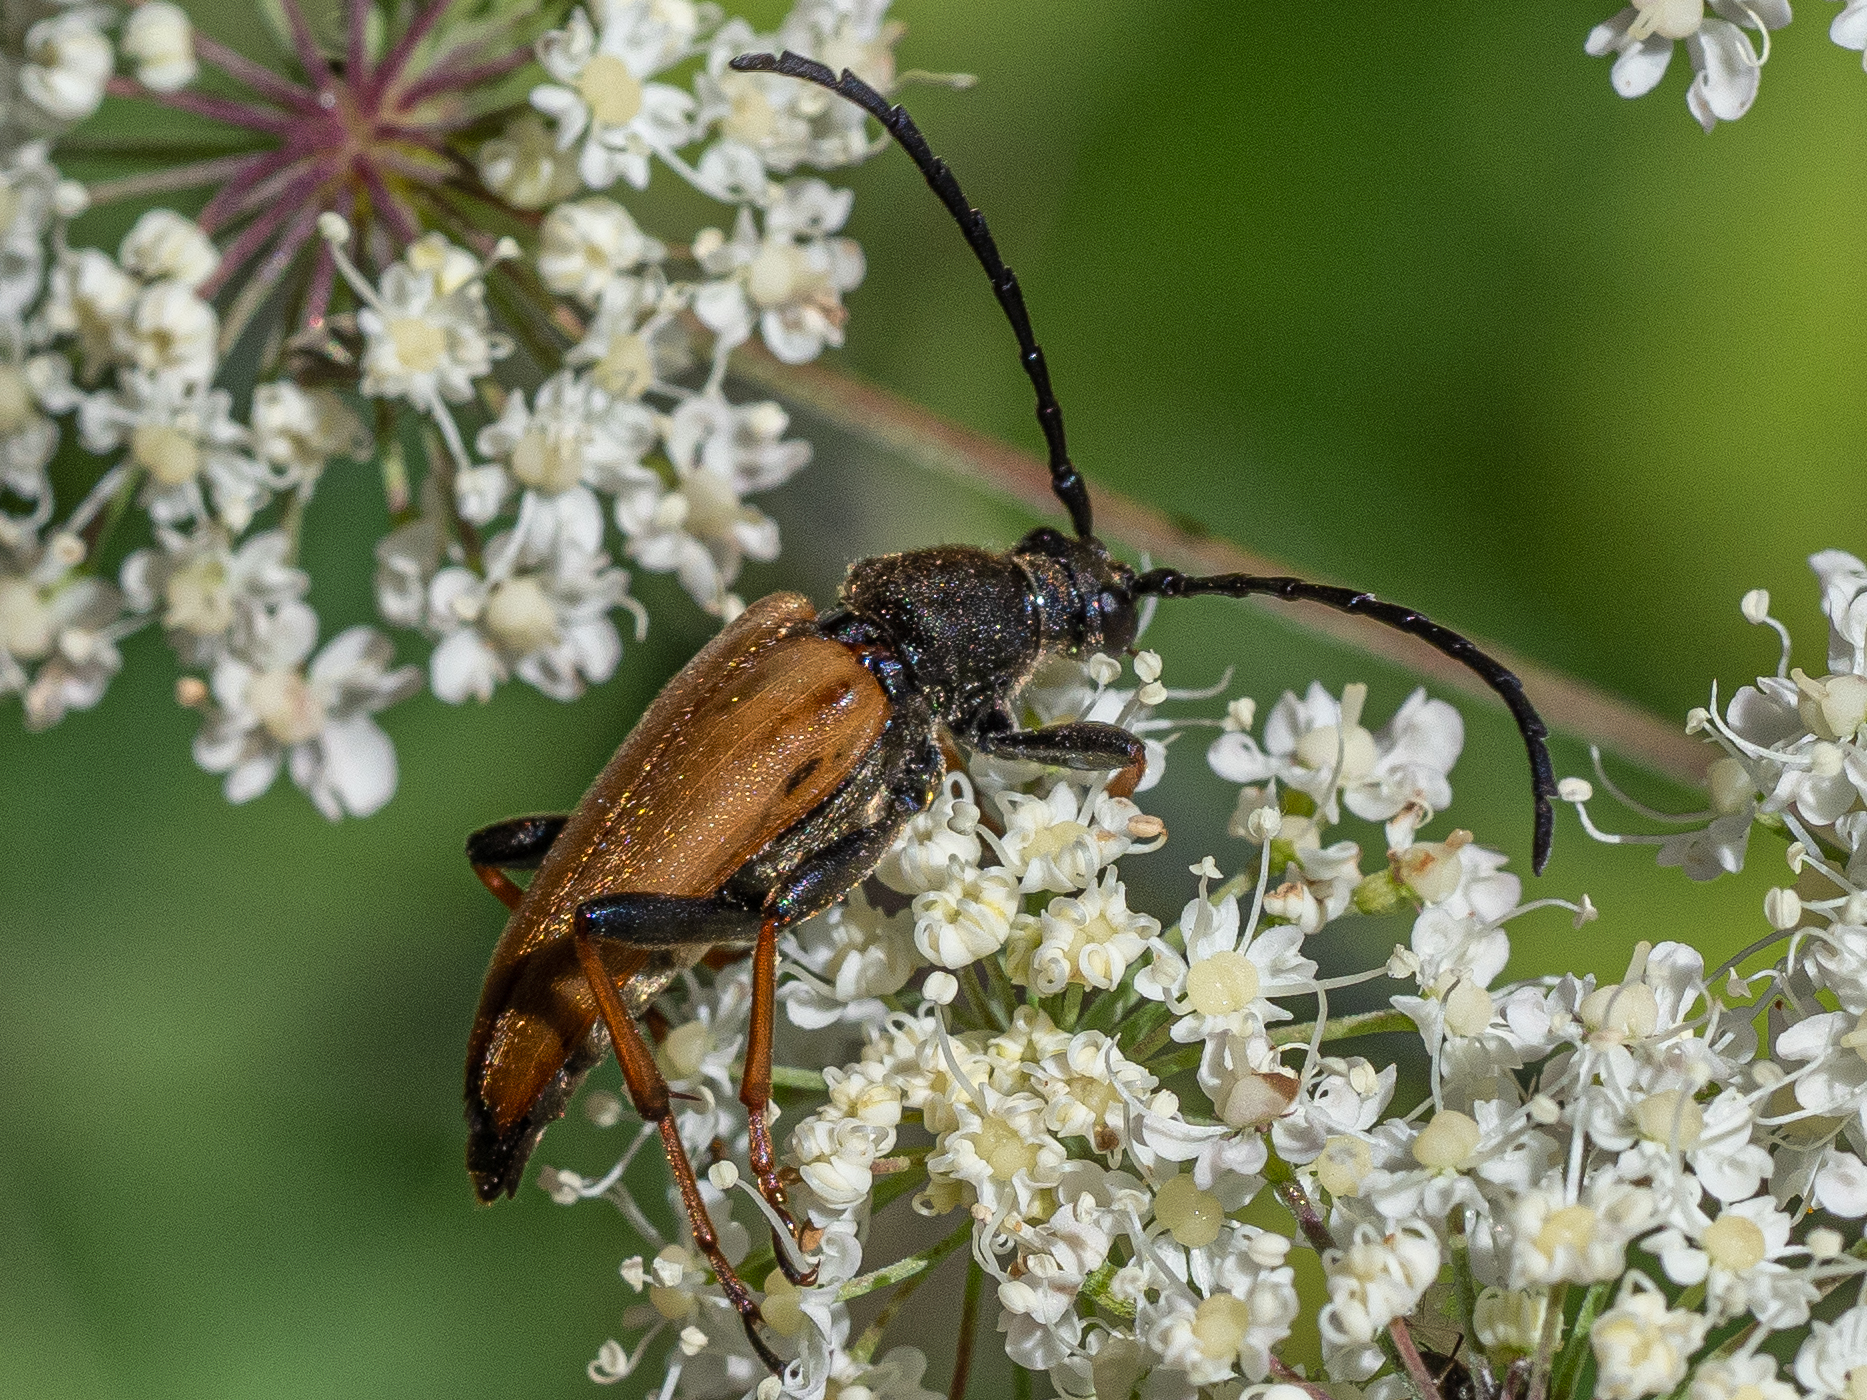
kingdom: Animalia
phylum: Arthropoda
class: Insecta
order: Coleoptera
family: Cerambycidae
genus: Stictoleptura
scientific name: Stictoleptura rubra
